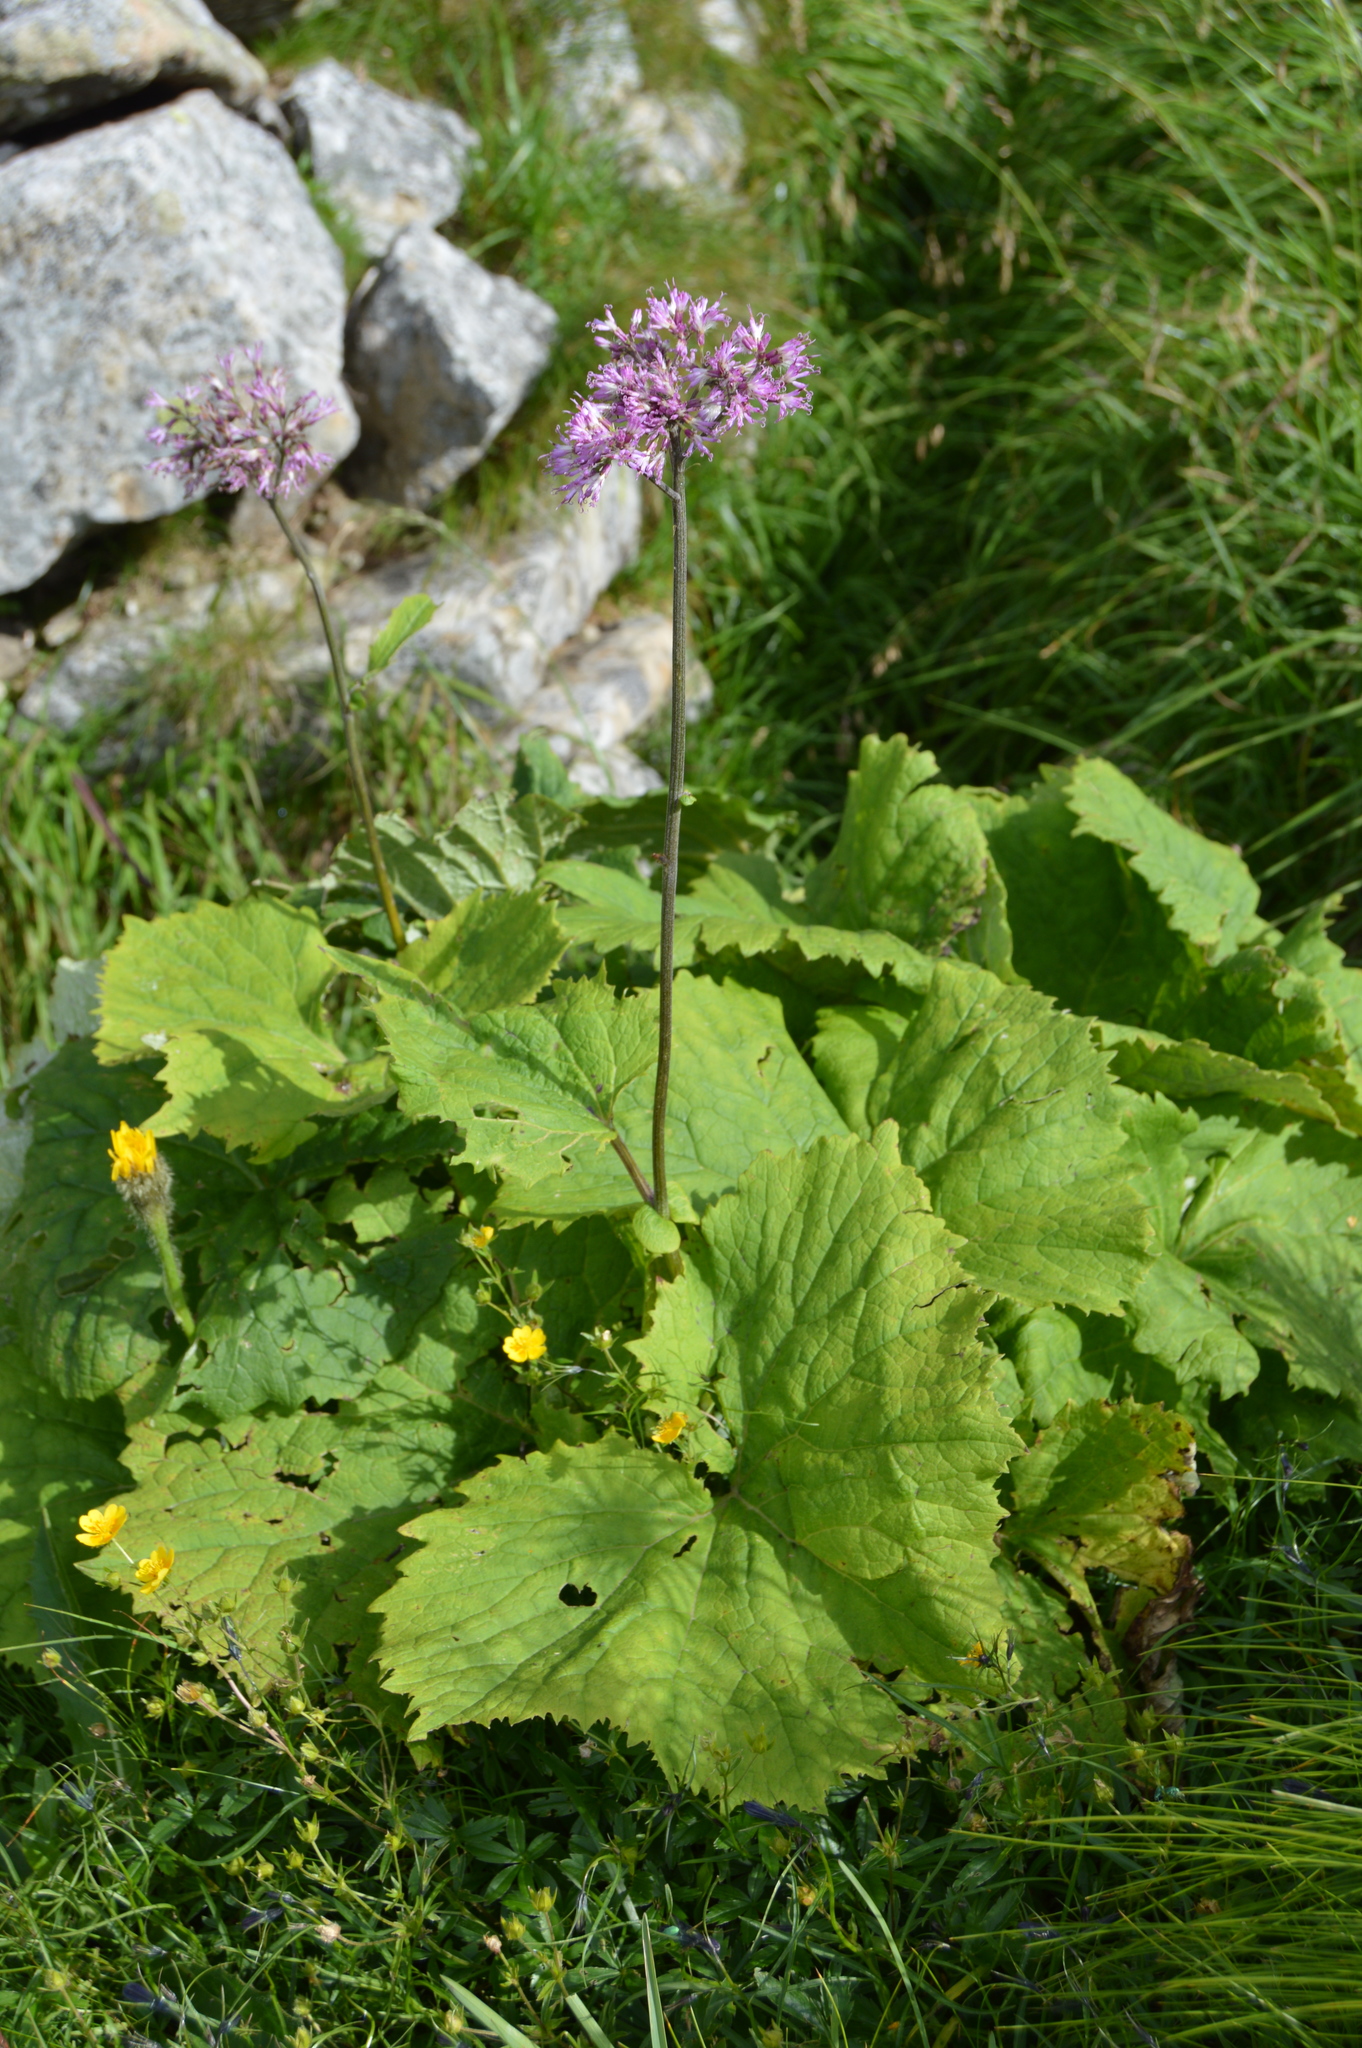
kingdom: Plantae
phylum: Tracheophyta
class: Magnoliopsida
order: Asterales
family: Asteraceae
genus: Adenostyles
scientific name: Adenostyles alliariae
